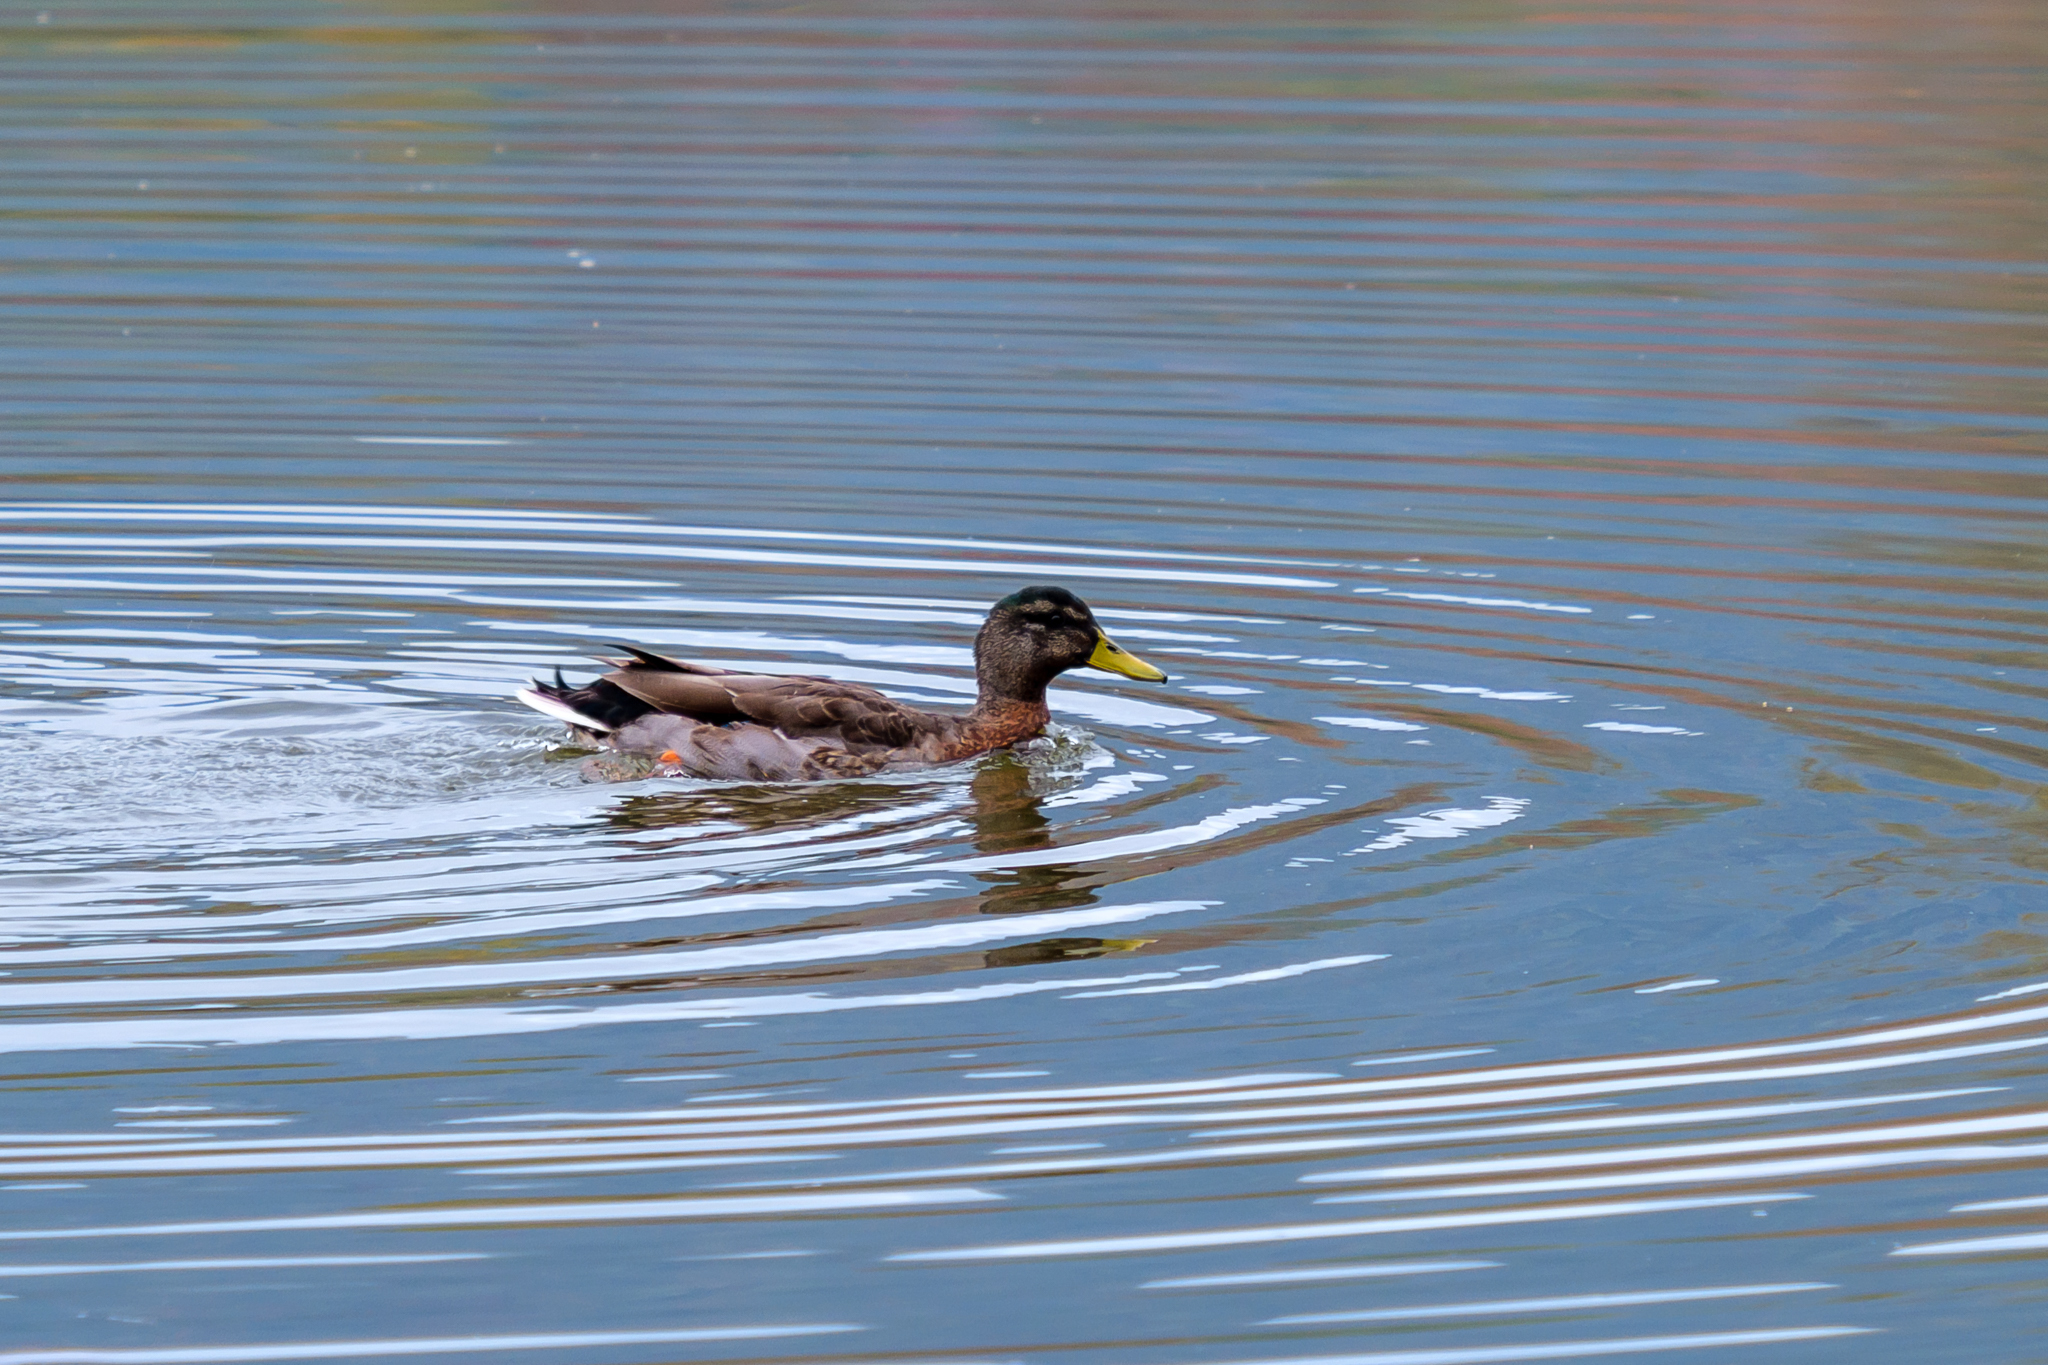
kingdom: Animalia
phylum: Chordata
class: Aves
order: Anseriformes
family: Anatidae
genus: Anas
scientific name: Anas platyrhynchos
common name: Mallard
